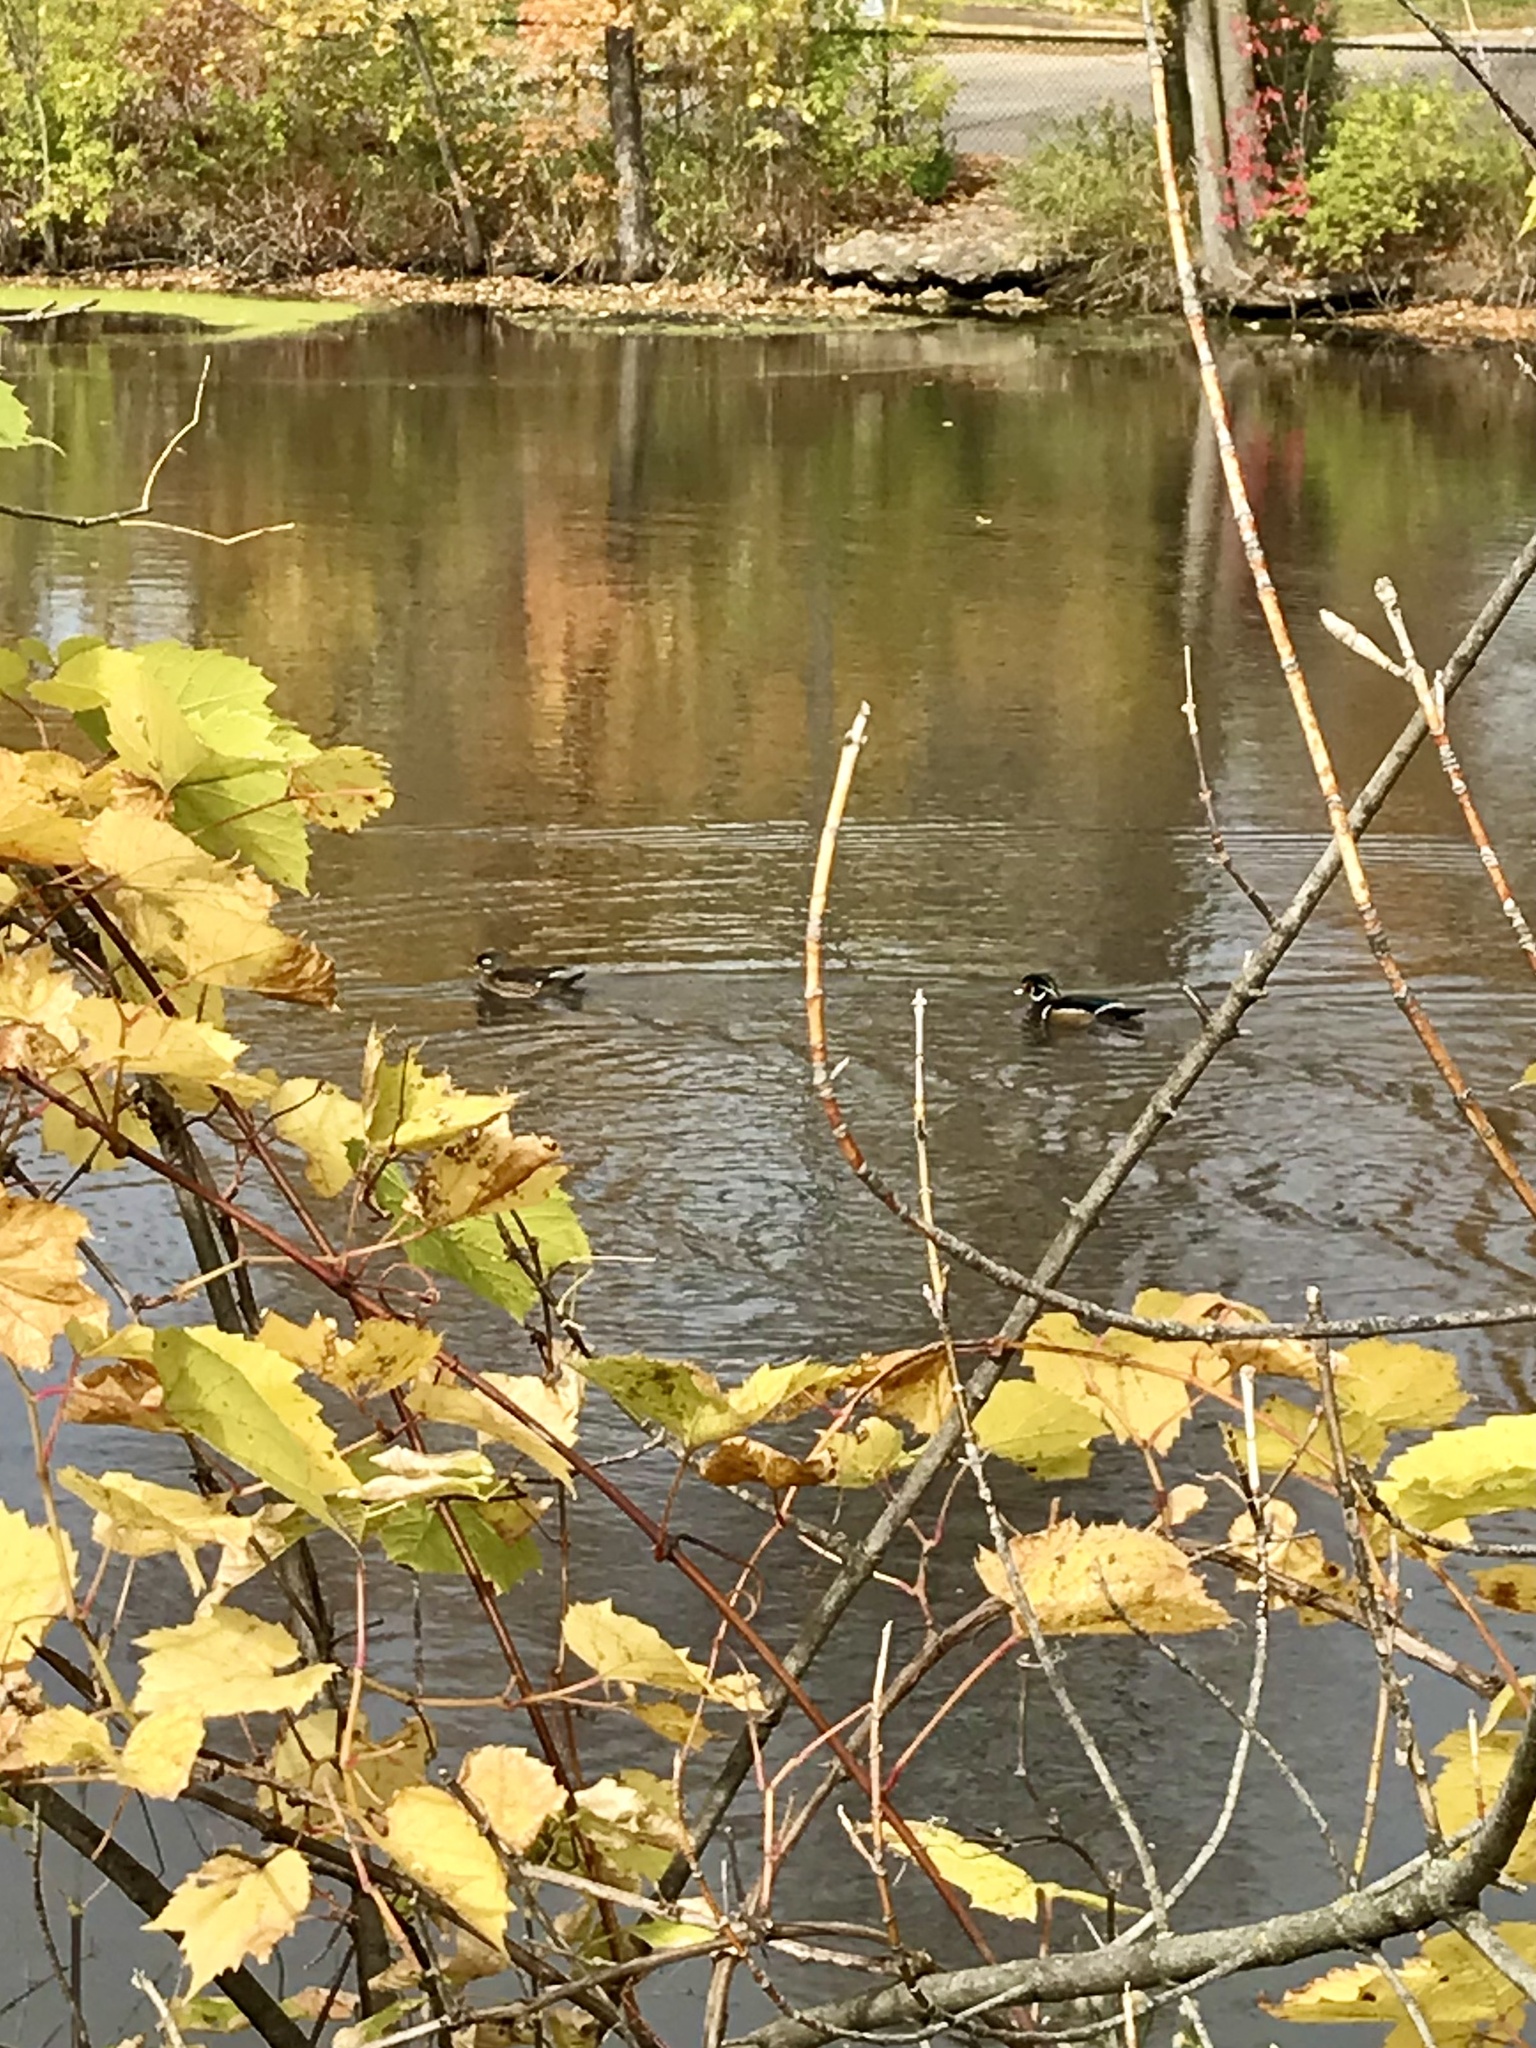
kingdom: Animalia
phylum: Chordata
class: Aves
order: Anseriformes
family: Anatidae
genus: Aix
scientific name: Aix sponsa
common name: Wood duck
